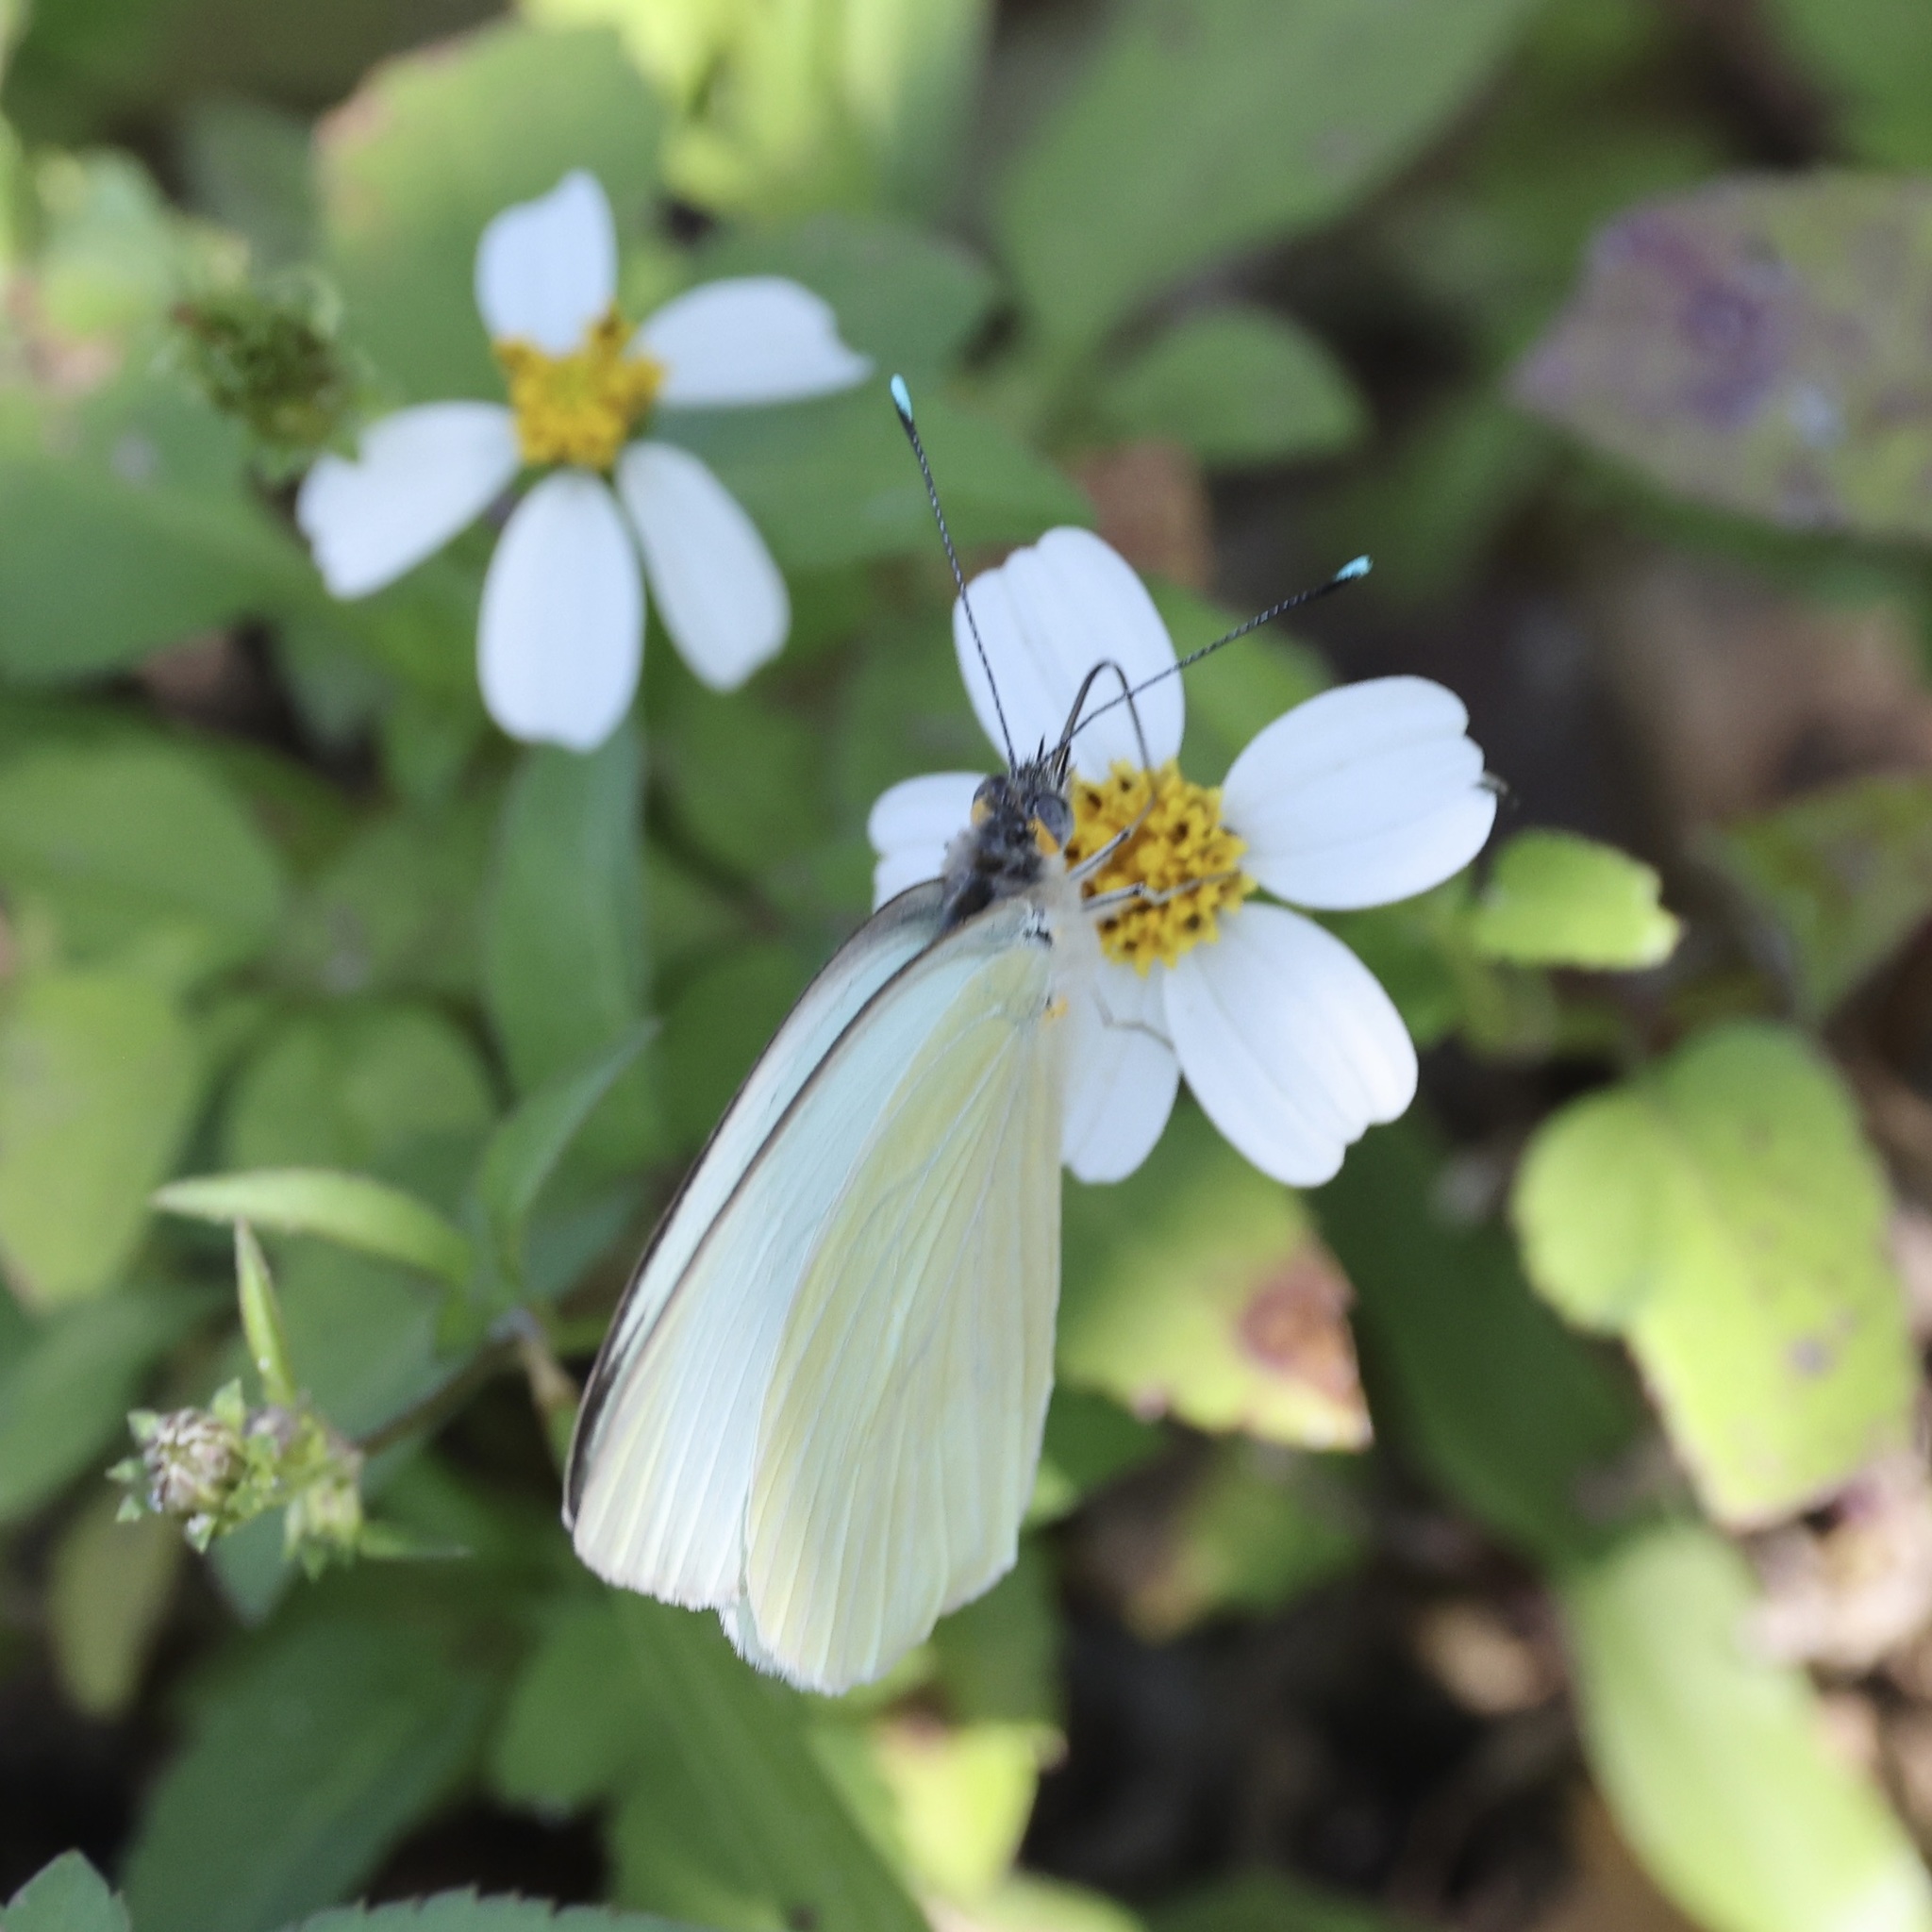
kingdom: Animalia
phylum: Arthropoda
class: Insecta
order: Lepidoptera
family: Pieridae
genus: Ascia
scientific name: Ascia monuste
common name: Great southern white
